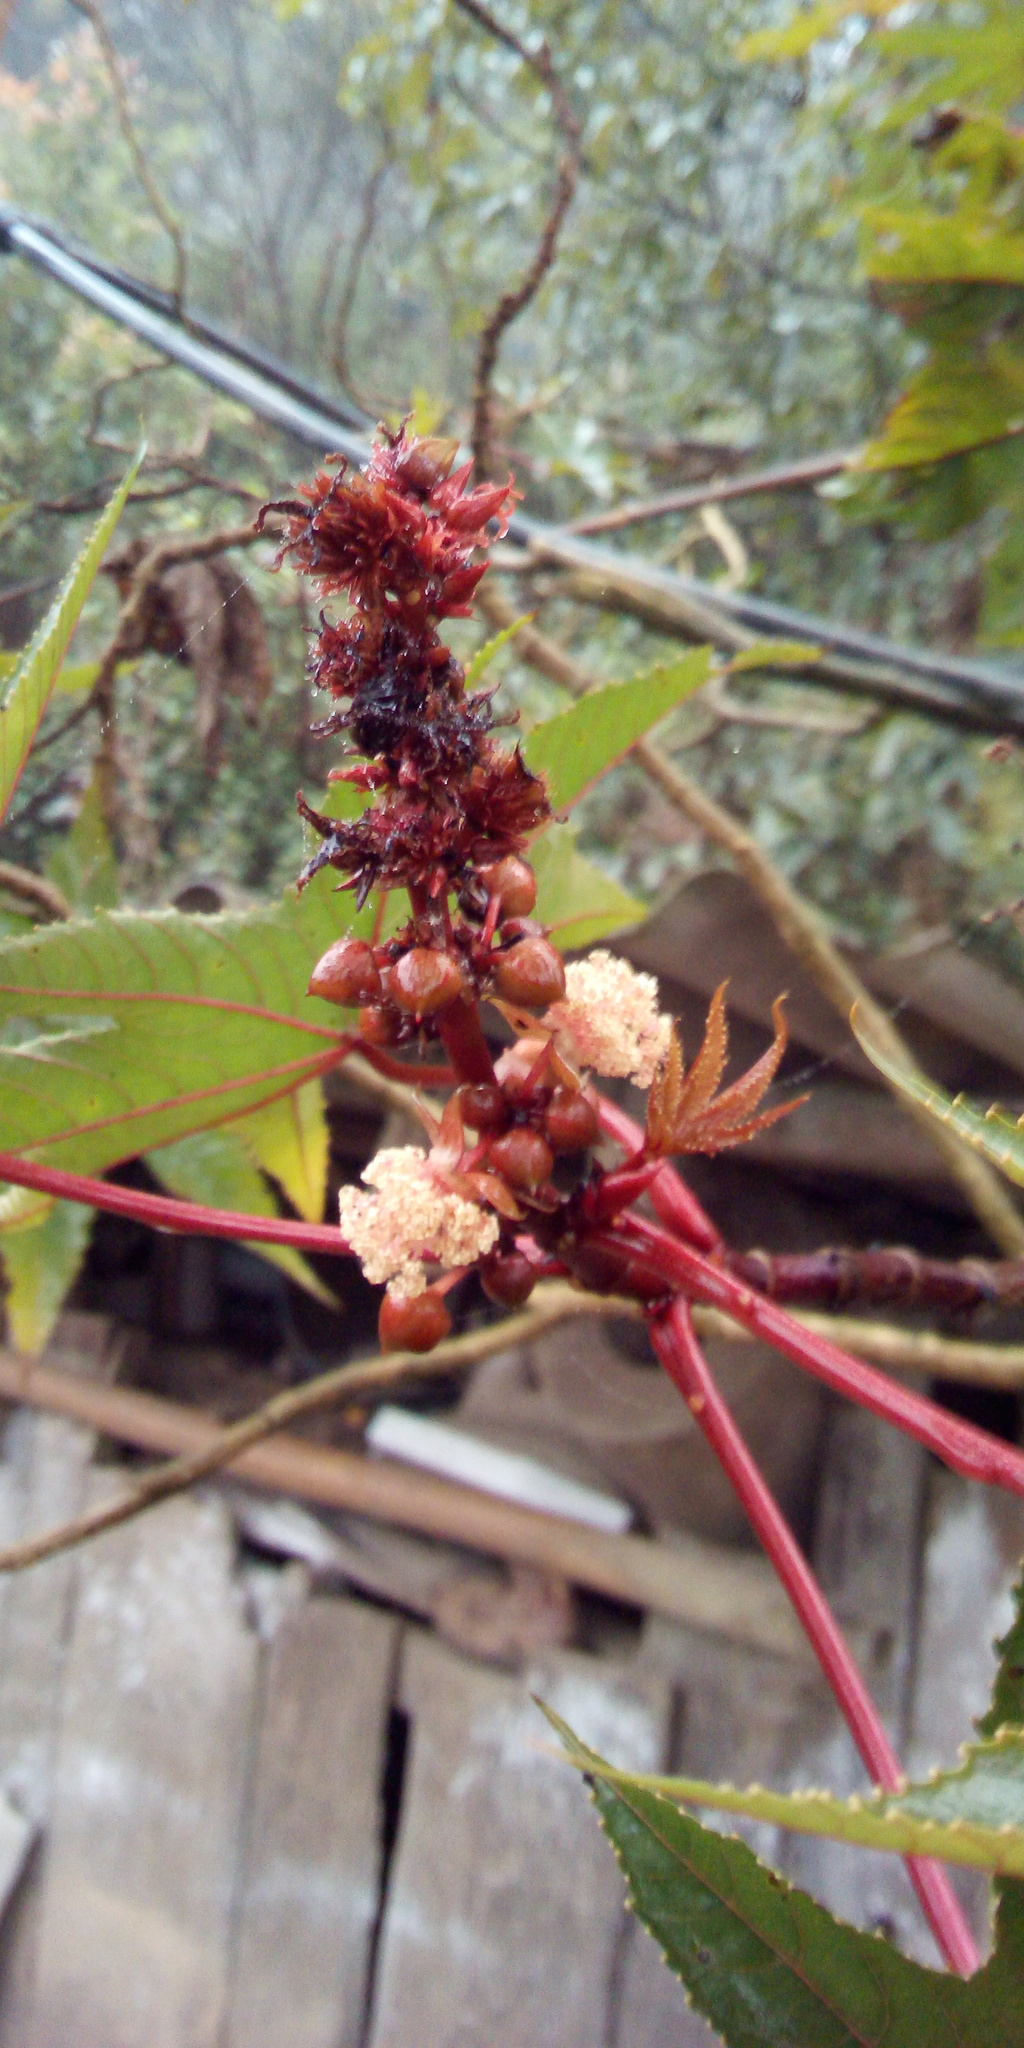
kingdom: Plantae
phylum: Tracheophyta
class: Magnoliopsida
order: Malpighiales
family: Euphorbiaceae
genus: Ricinus
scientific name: Ricinus communis
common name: Castor-oil-plant
